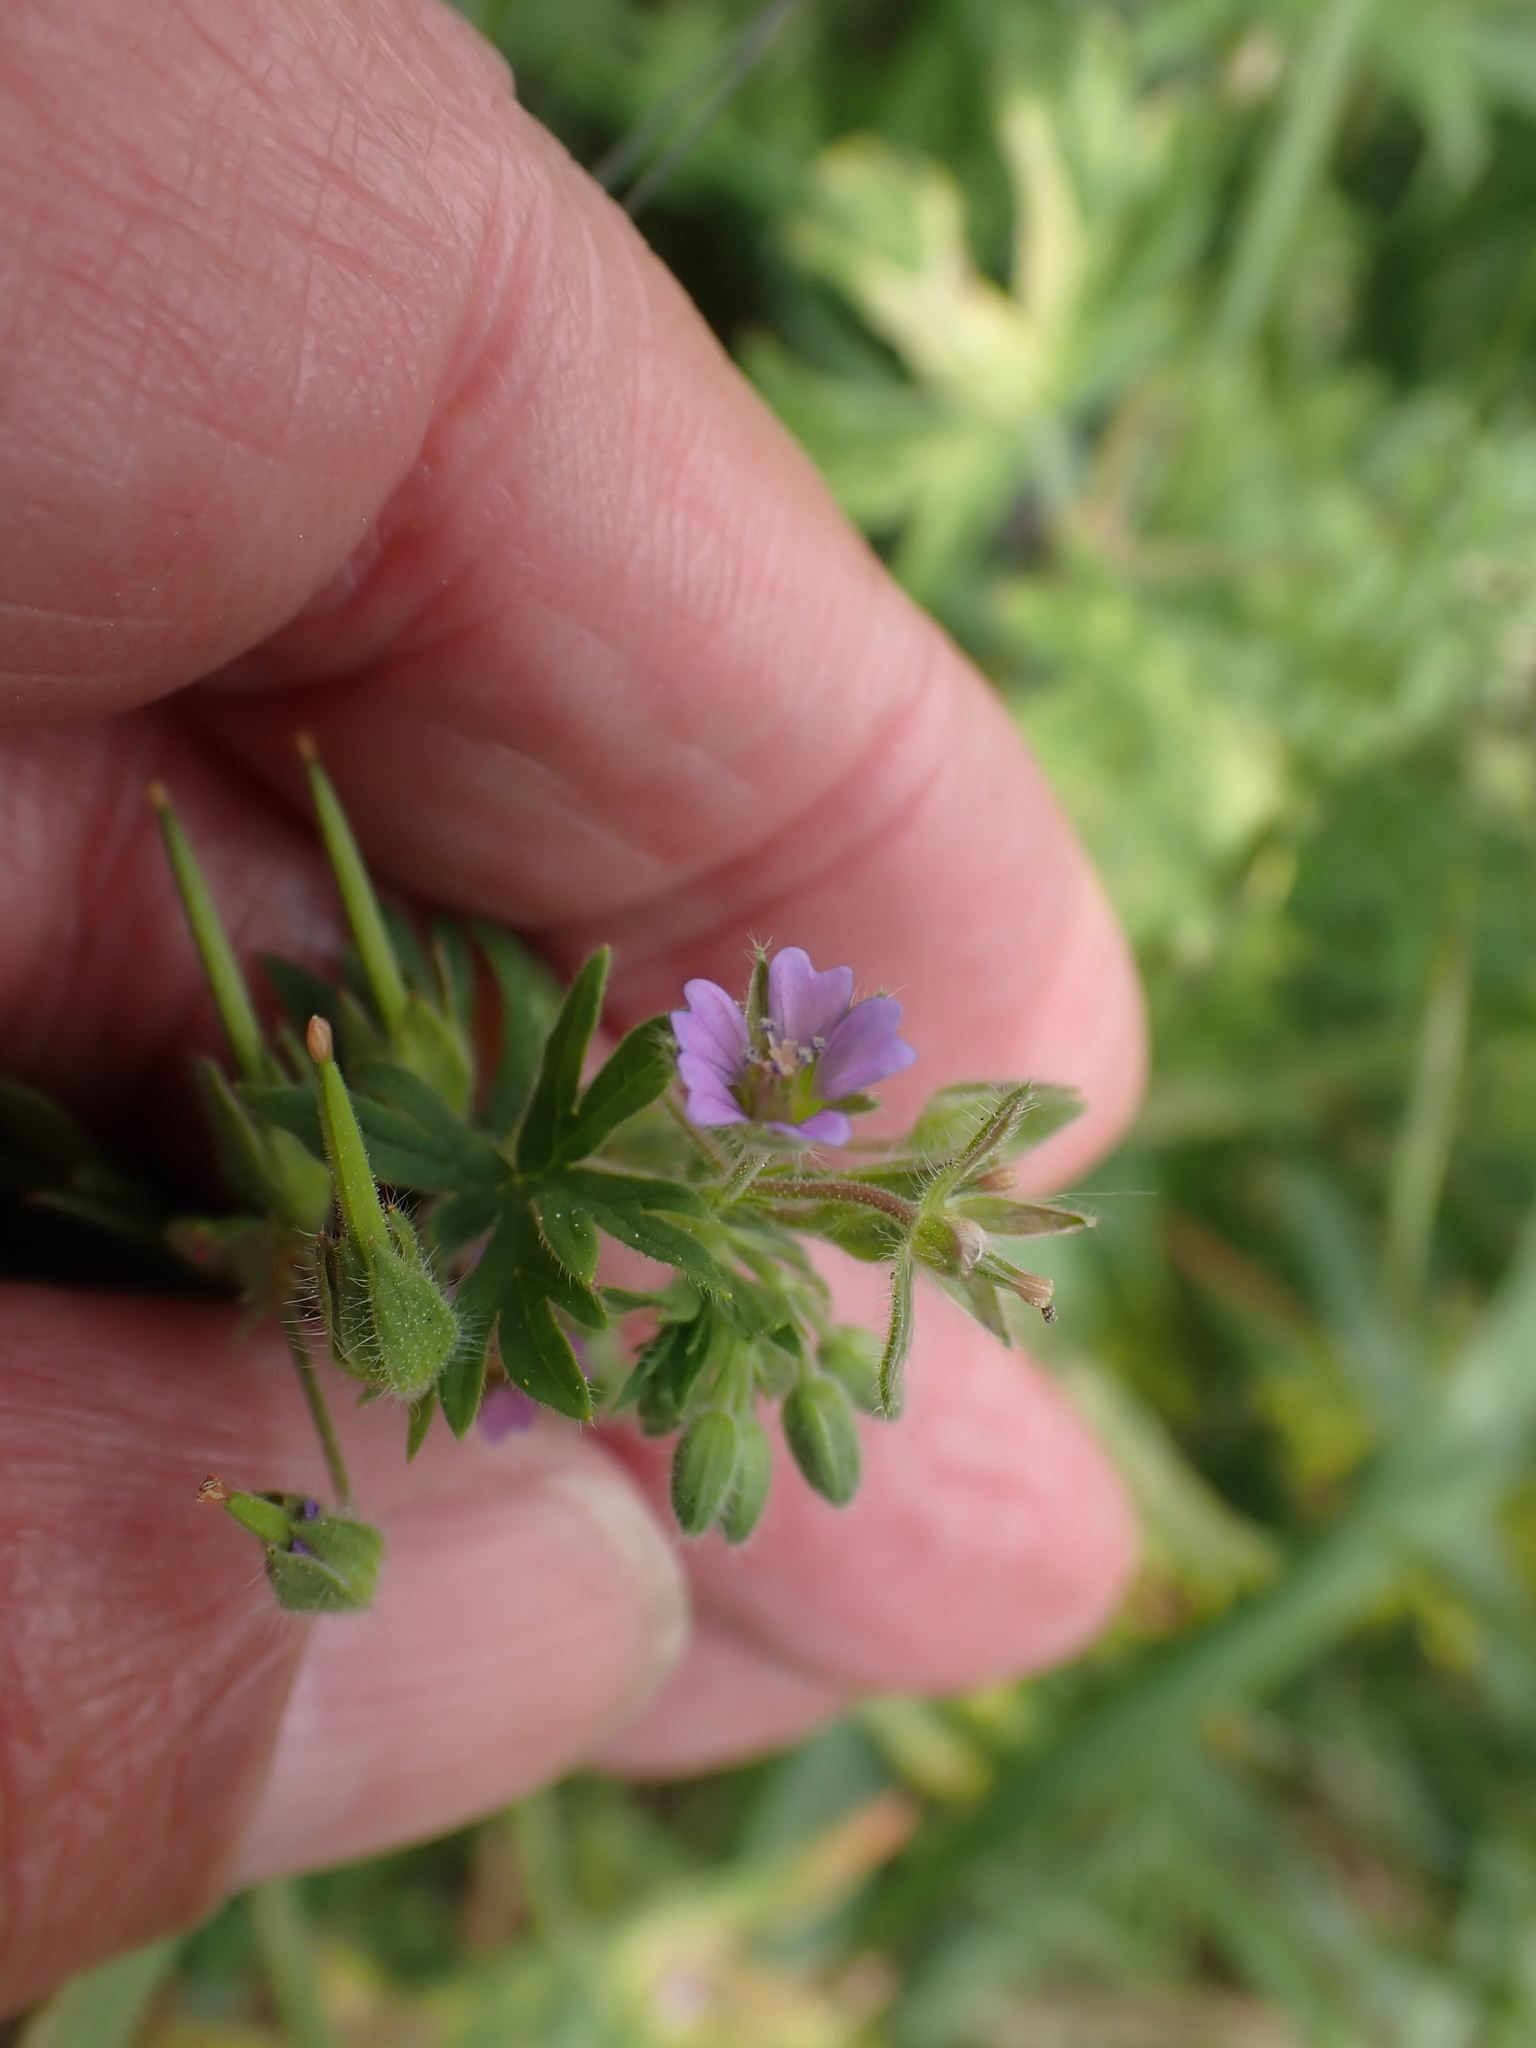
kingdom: Plantae
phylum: Tracheophyta
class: Magnoliopsida
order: Geraniales
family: Geraniaceae
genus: Geranium
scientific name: Geranium pusillum
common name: Small geranium
